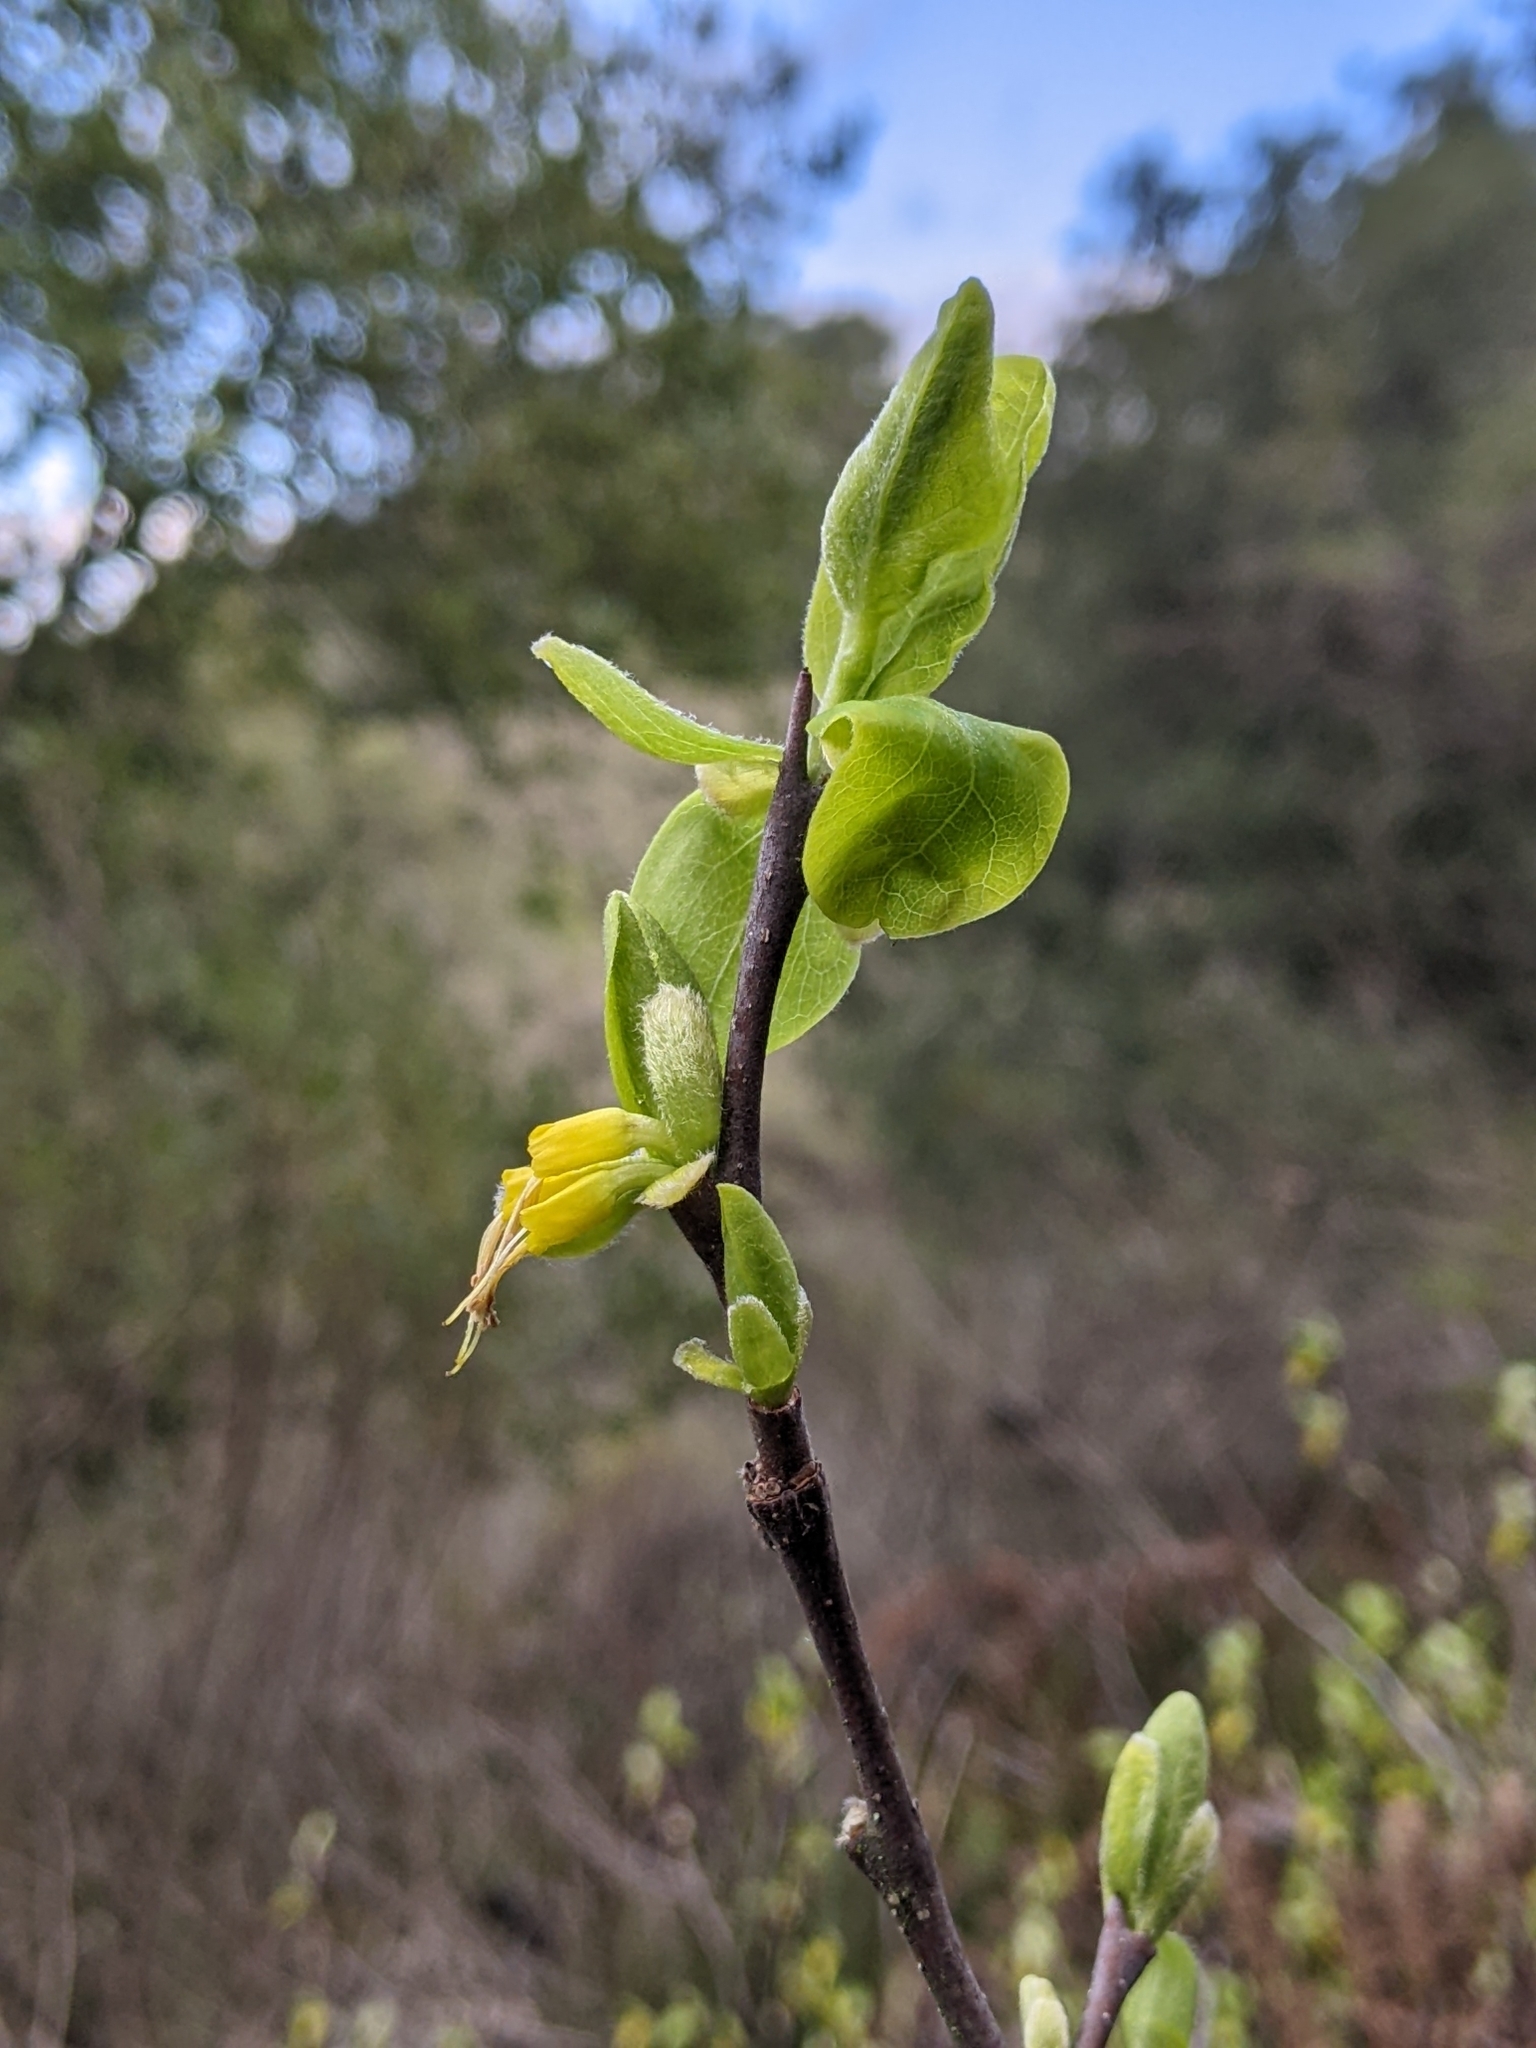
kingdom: Plantae
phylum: Tracheophyta
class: Magnoliopsida
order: Malvales
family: Thymelaeaceae
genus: Dirca
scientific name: Dirca occidentalis
